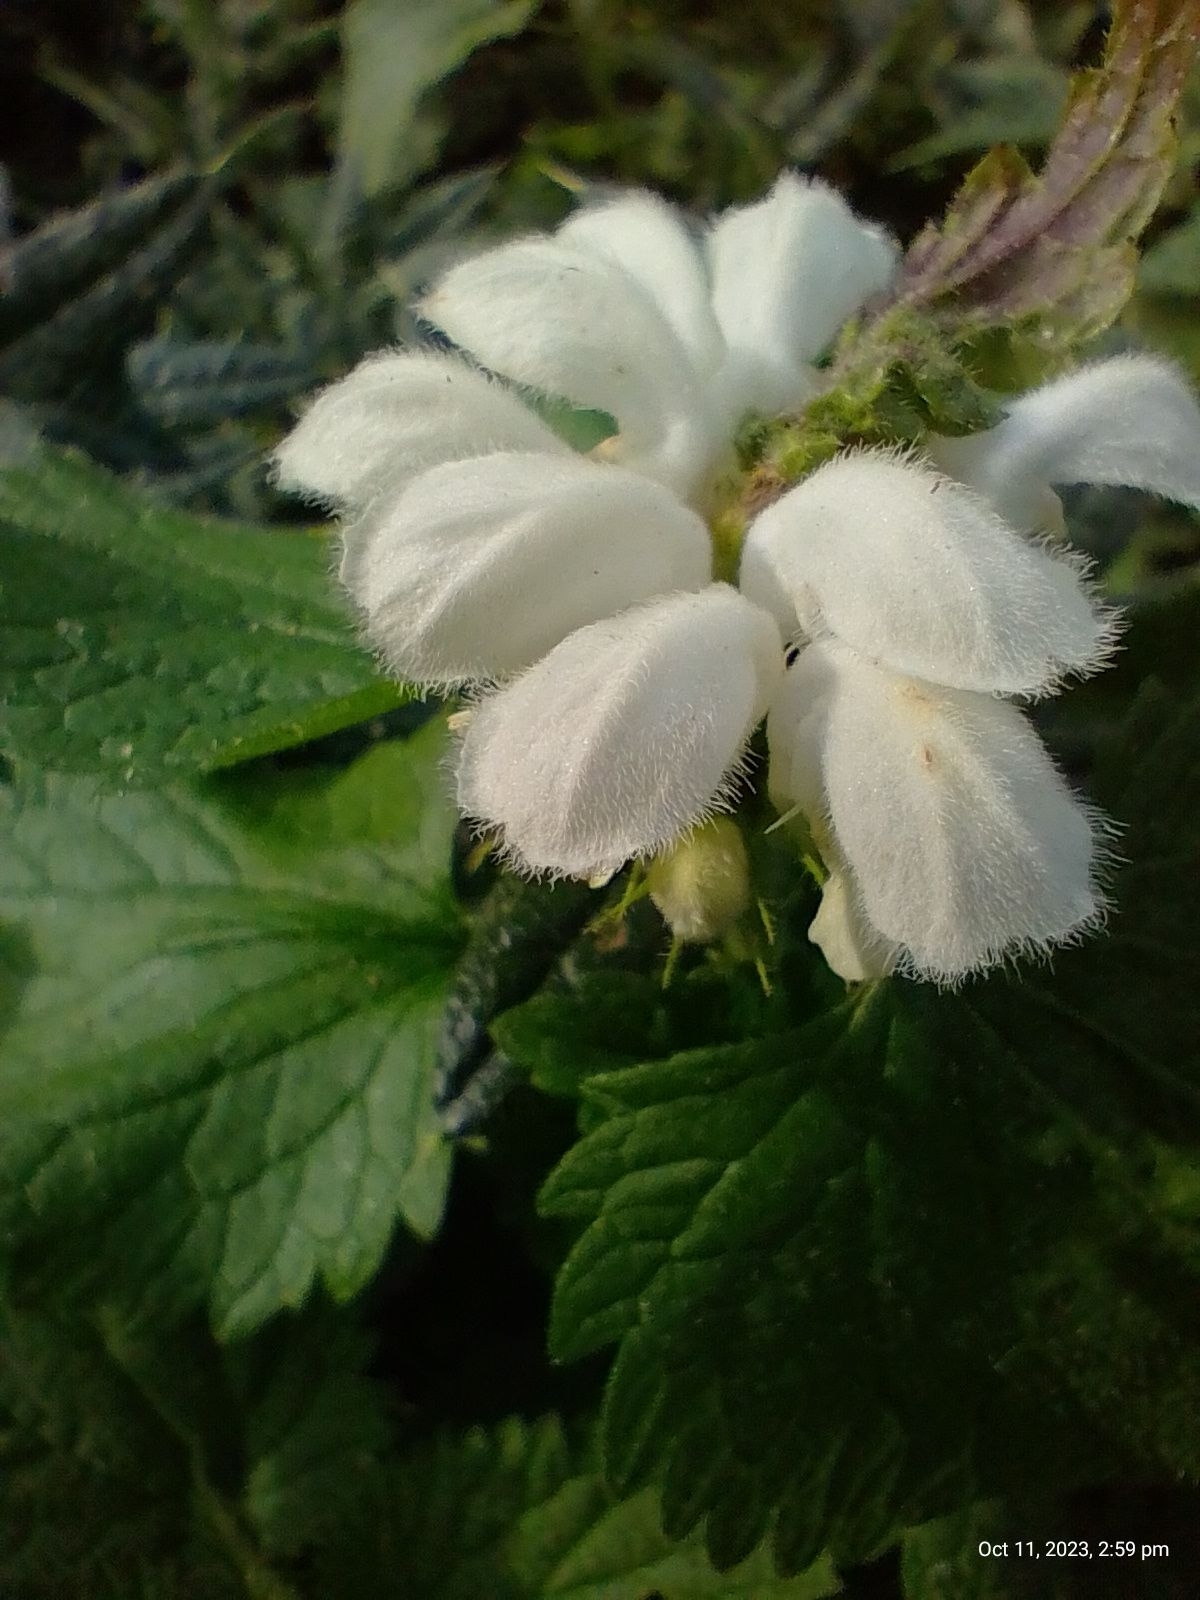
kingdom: Plantae
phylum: Tracheophyta
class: Magnoliopsida
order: Lamiales
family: Lamiaceae
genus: Lamium
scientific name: Lamium album
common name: White dead-nettle
